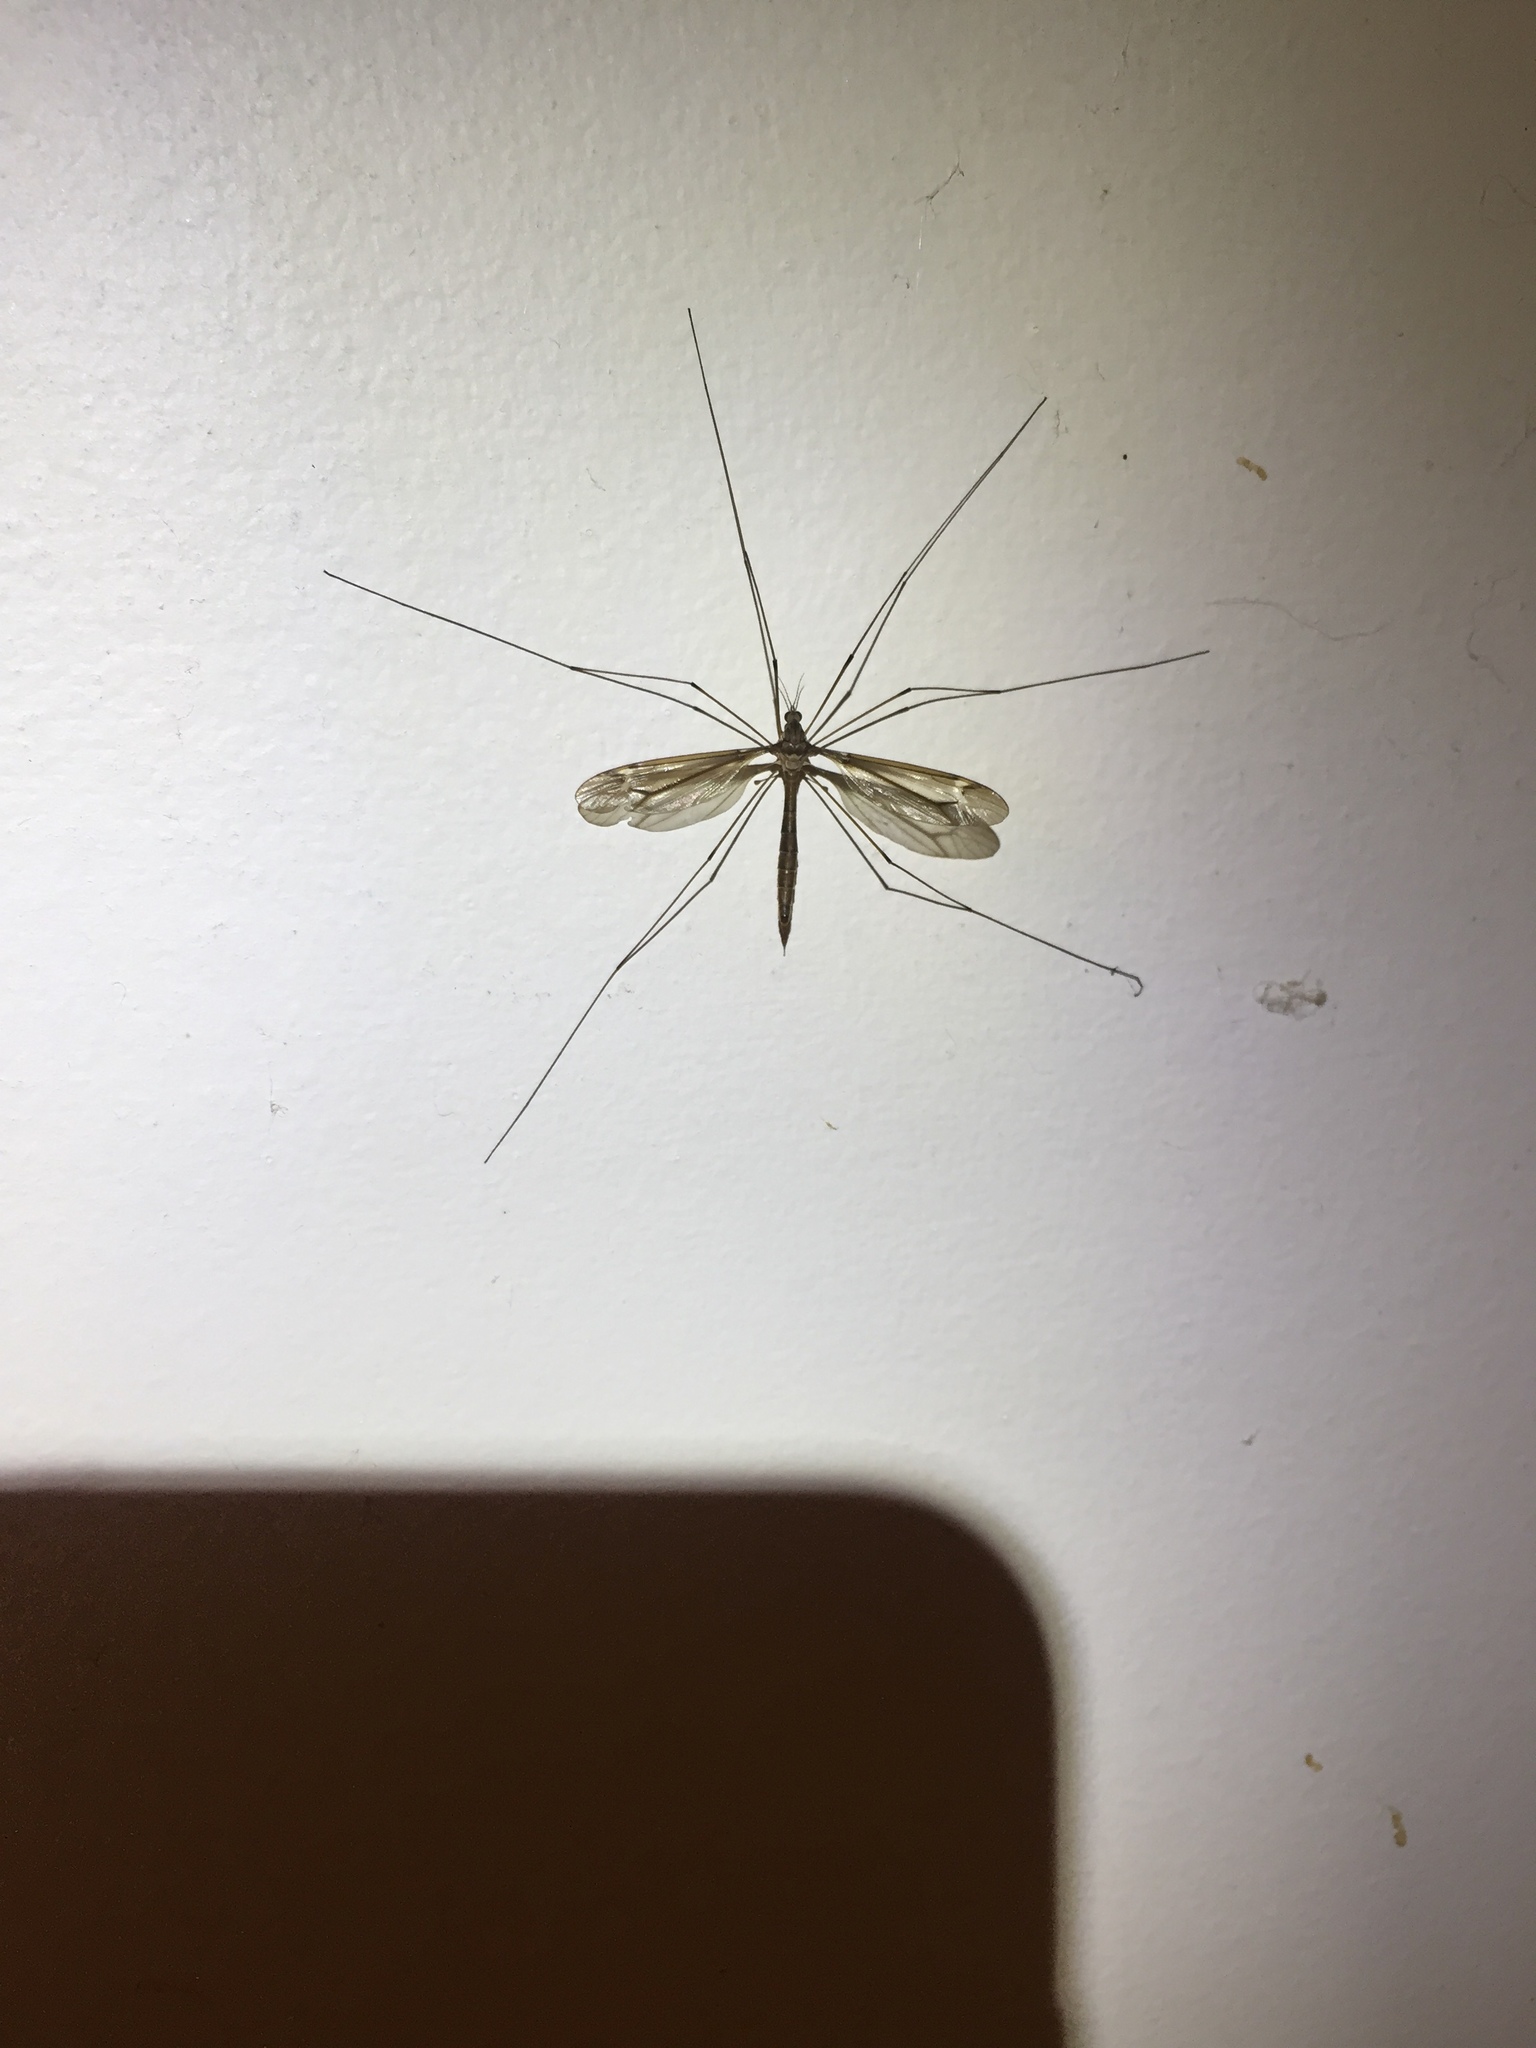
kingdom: Animalia
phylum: Arthropoda
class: Insecta
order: Diptera
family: Tipulidae
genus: Tipula
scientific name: Tipula tricolor
